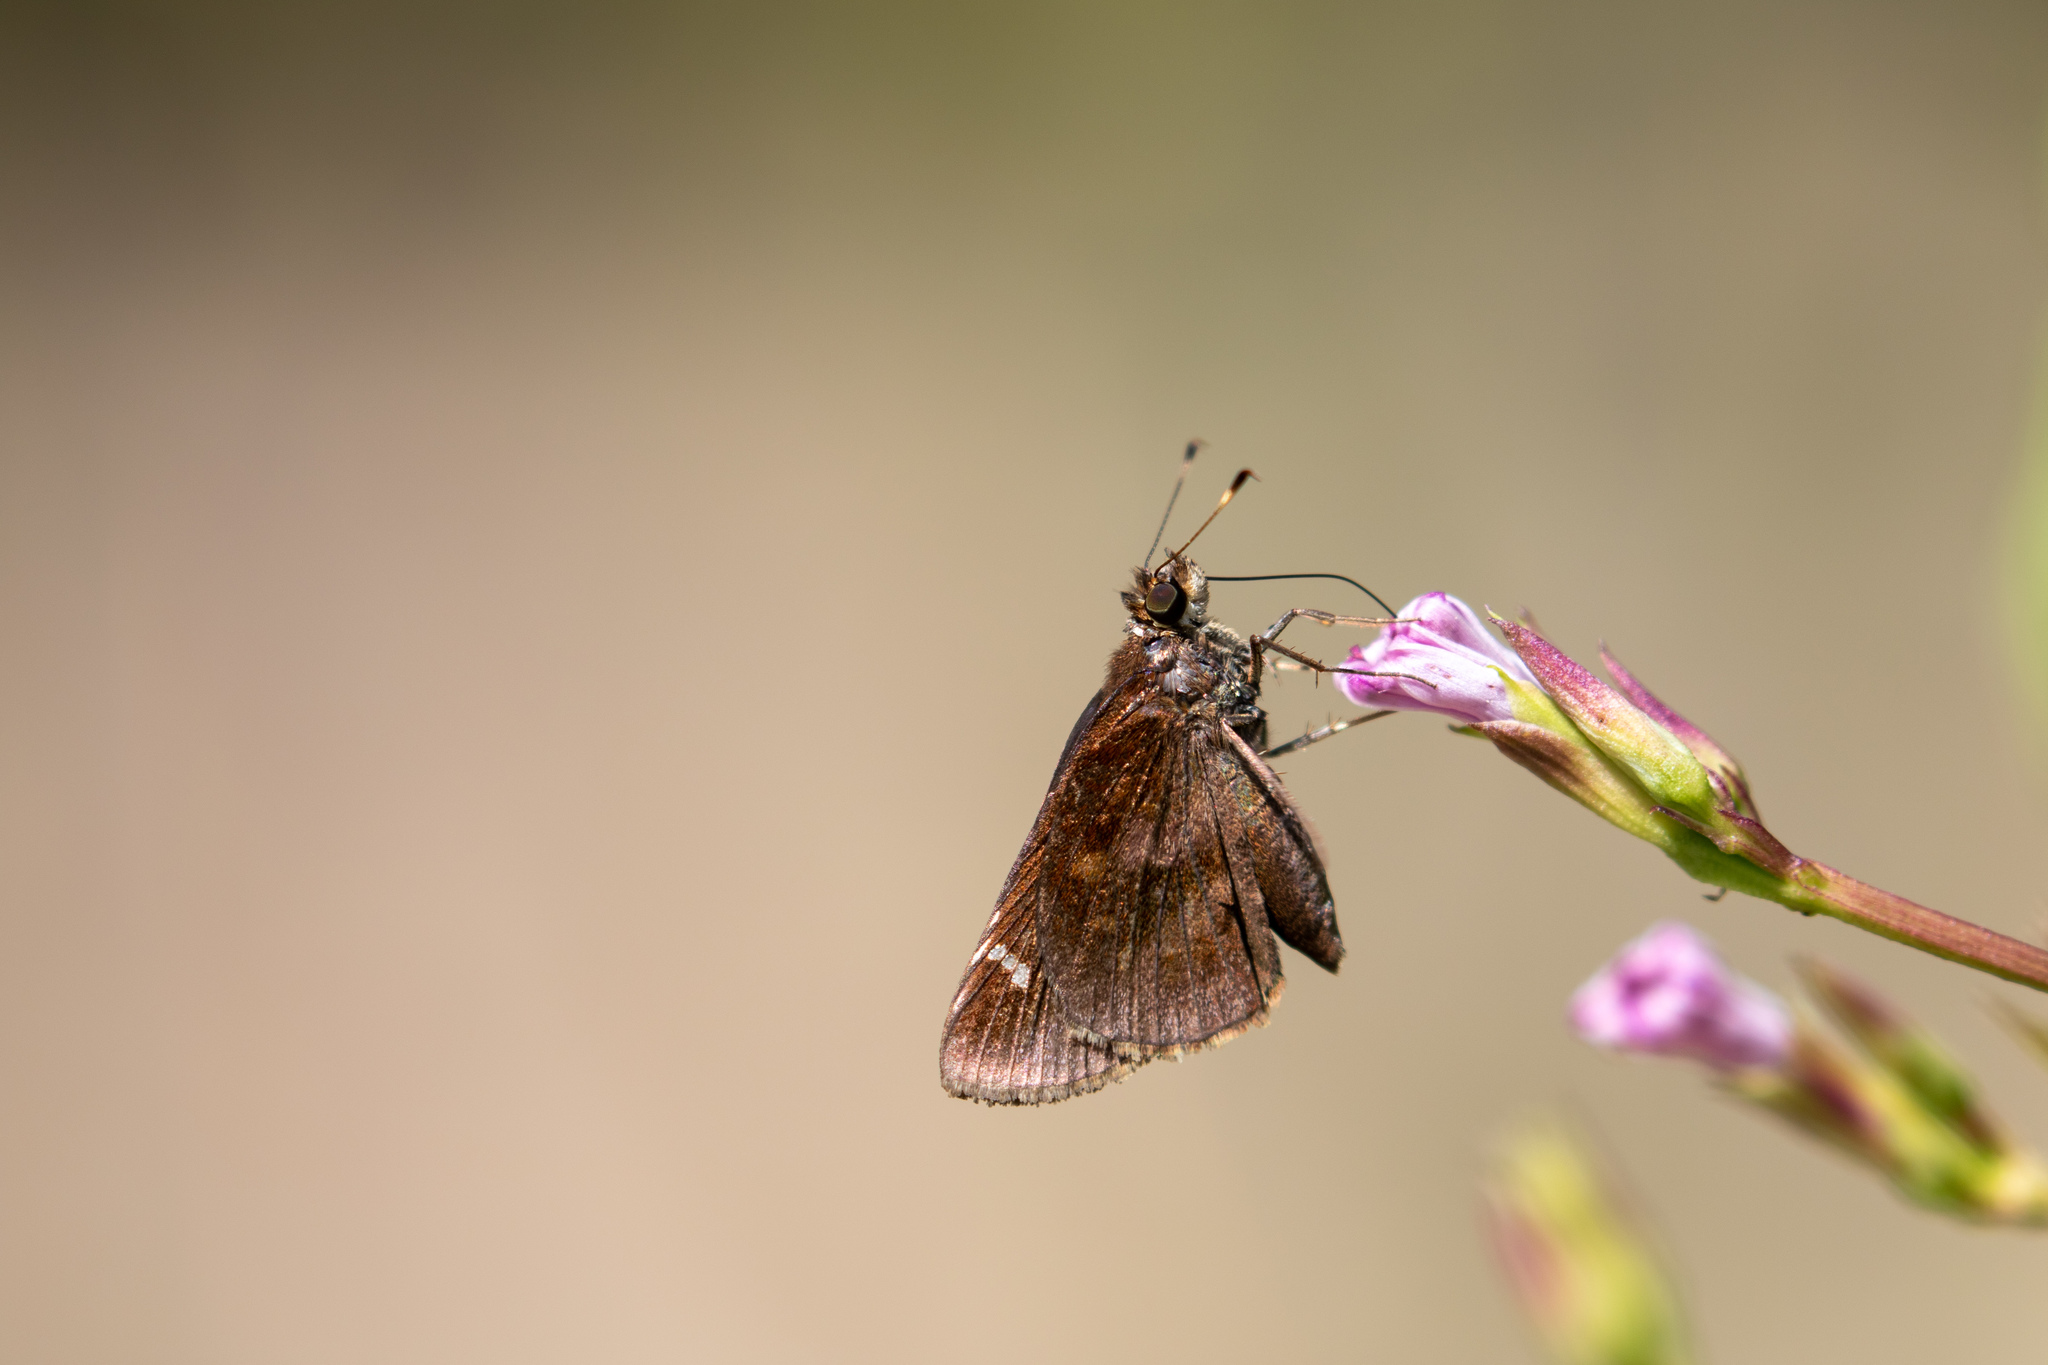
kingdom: Animalia
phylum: Arthropoda
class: Insecta
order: Lepidoptera
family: Hesperiidae
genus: Lerema
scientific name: Lerema accius
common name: Clouded skipper
